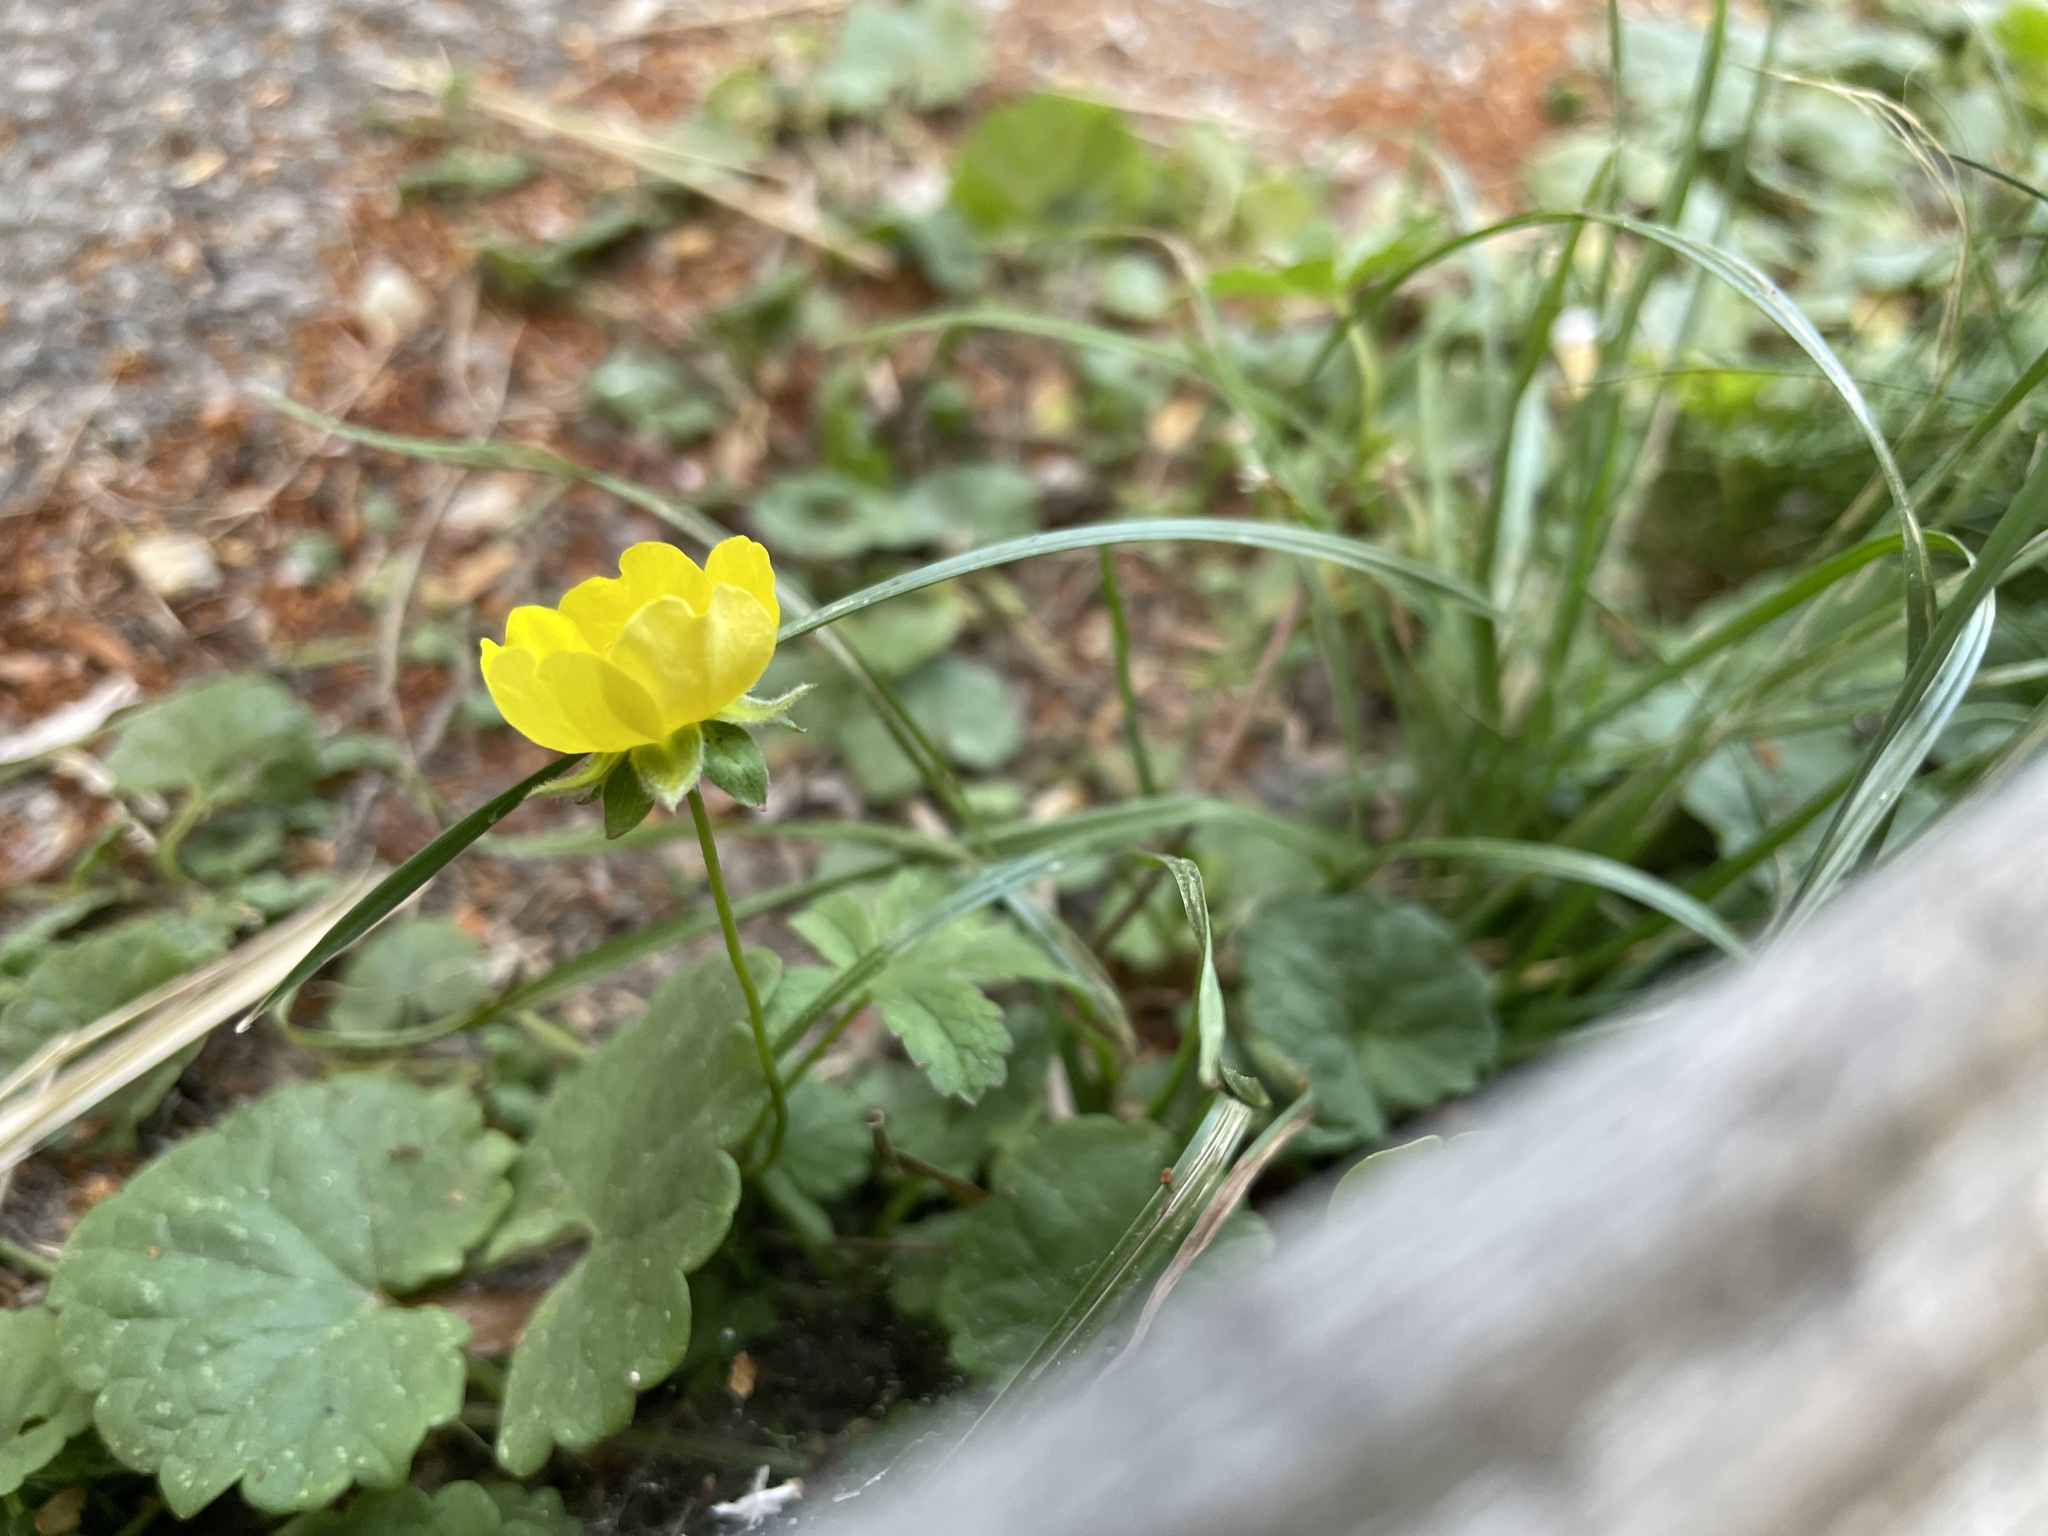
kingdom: Plantae
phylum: Tracheophyta
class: Magnoliopsida
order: Rosales
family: Rosaceae
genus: Potentilla
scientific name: Potentilla reptans
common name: Creeping cinquefoil
